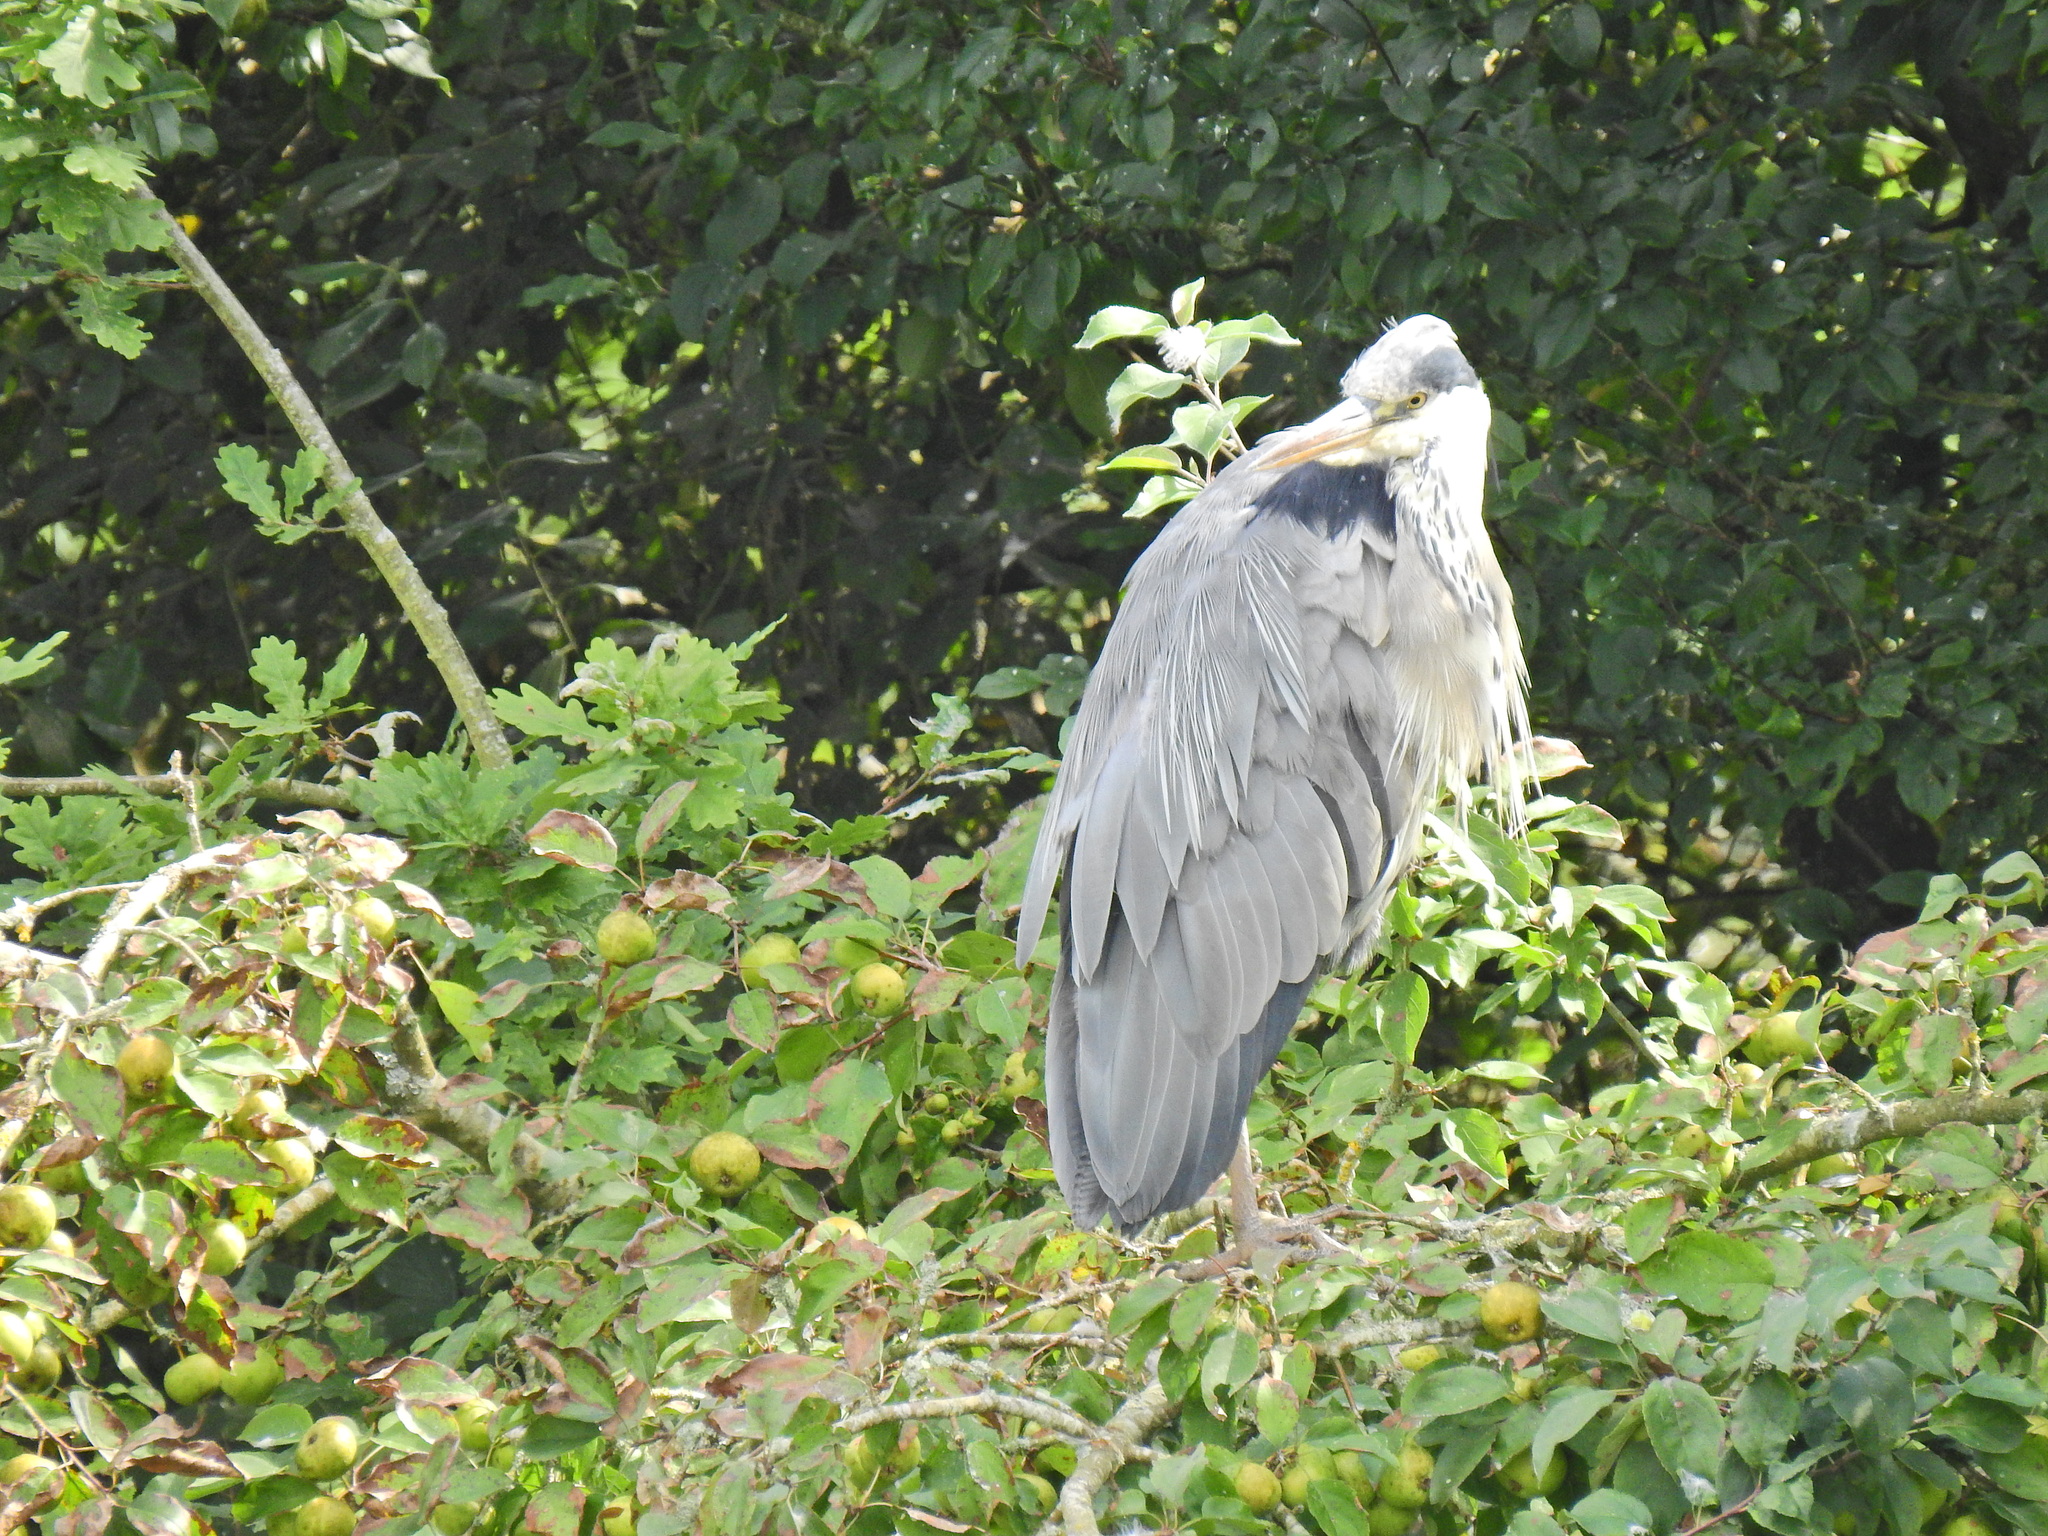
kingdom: Animalia
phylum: Chordata
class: Aves
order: Pelecaniformes
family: Ardeidae
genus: Ardea
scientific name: Ardea cinerea
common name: Grey heron
